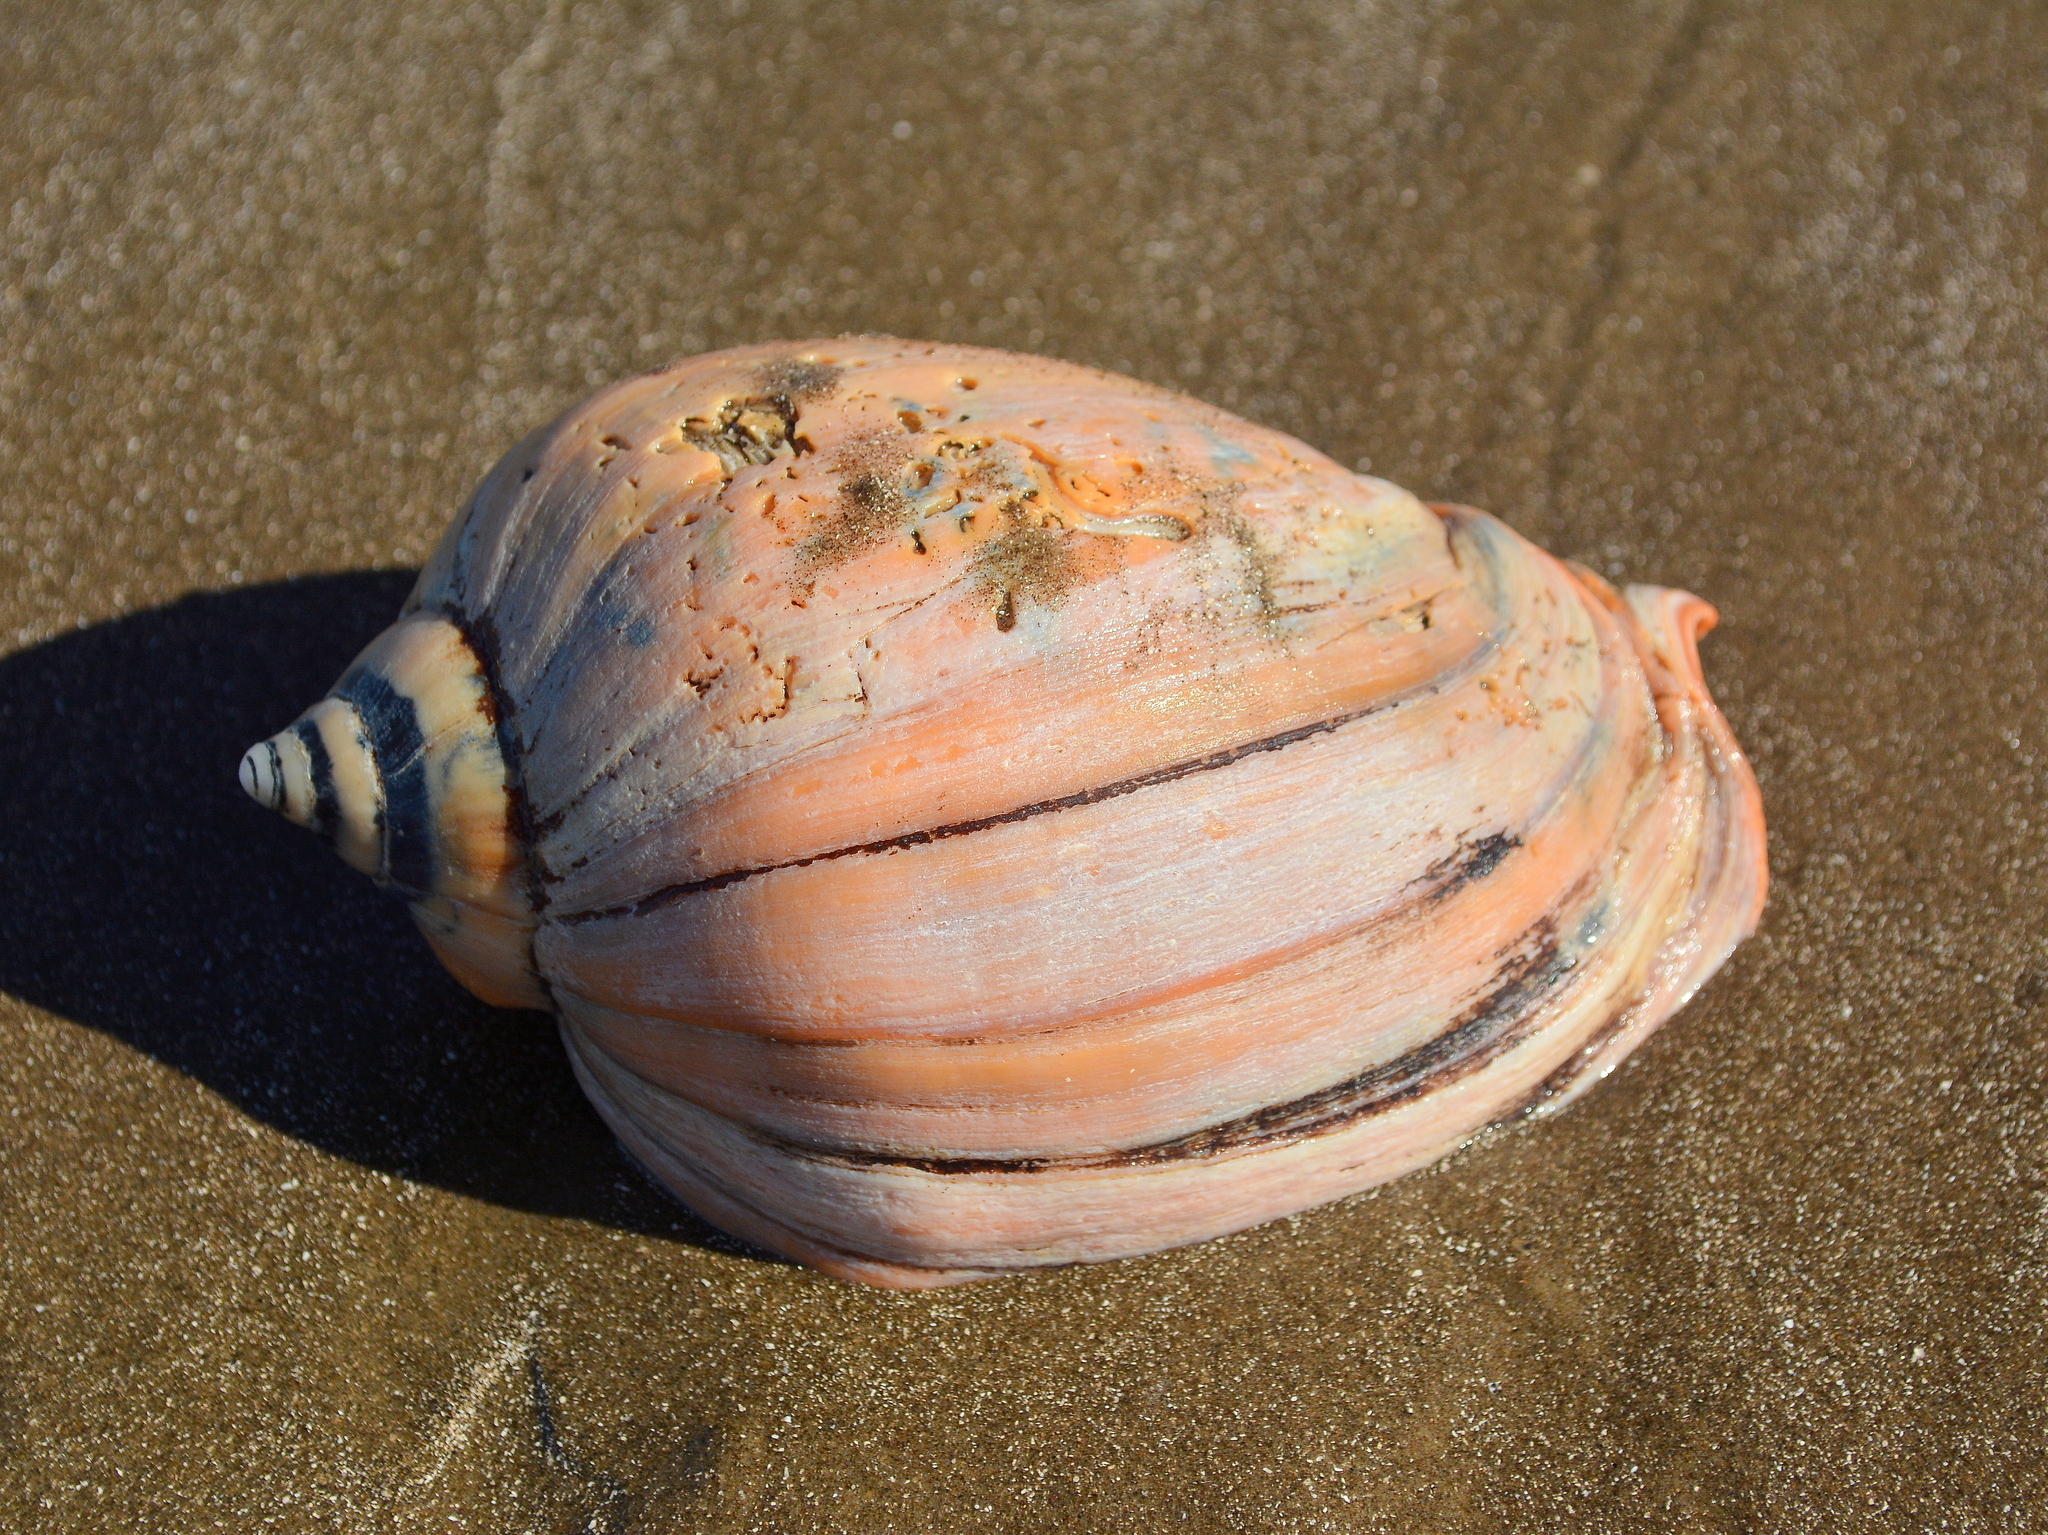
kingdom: Animalia
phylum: Mollusca
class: Gastropoda
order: Neogastropoda
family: Volutidae
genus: Pachycymbiola
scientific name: Pachycymbiola brasiliana
